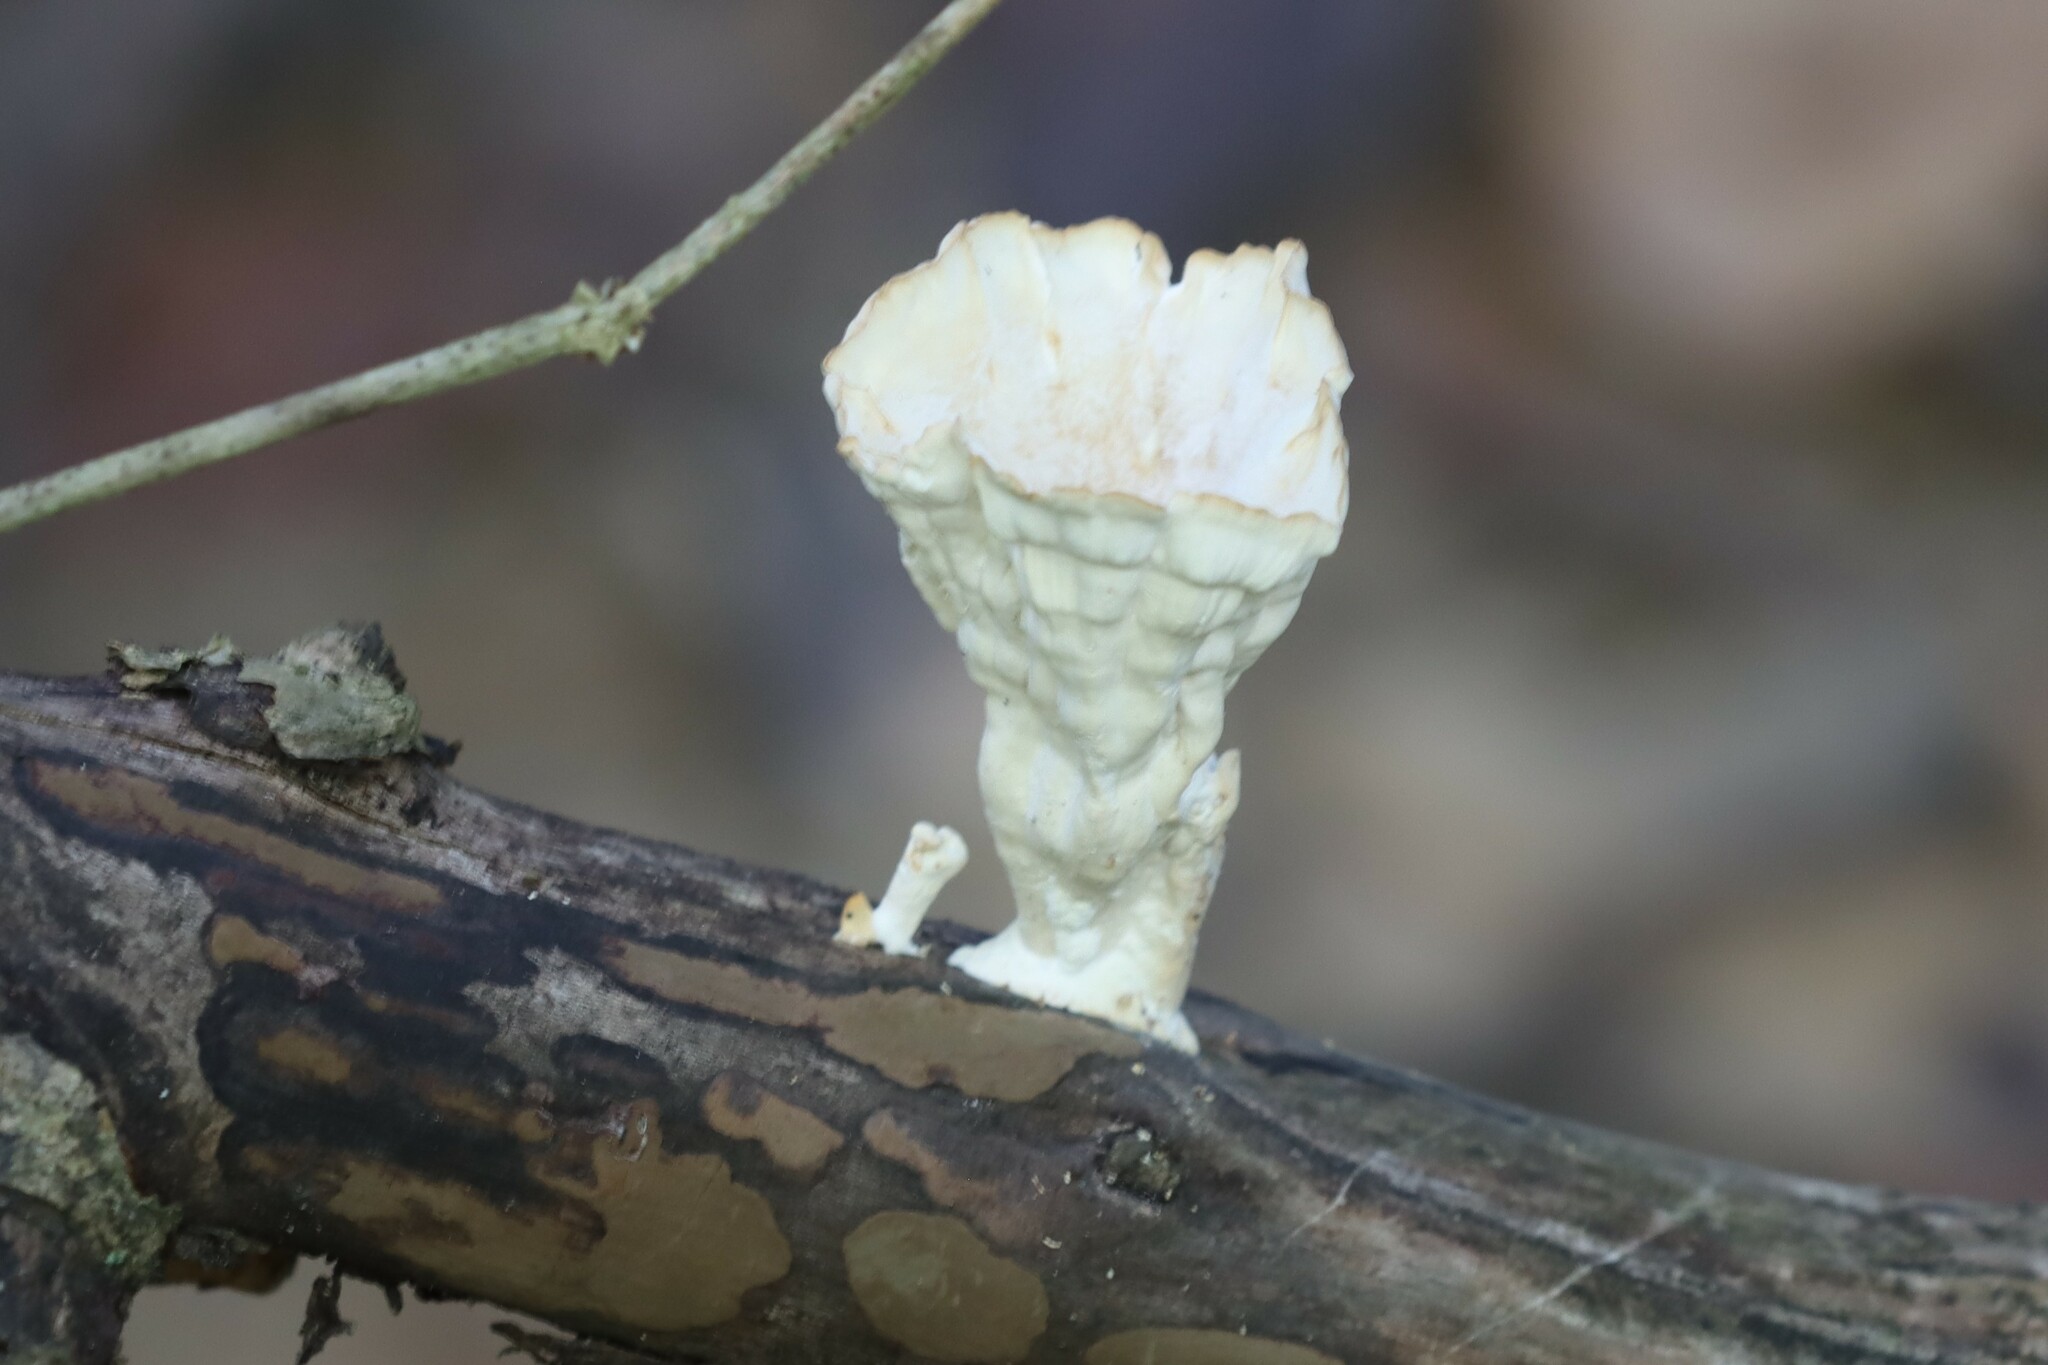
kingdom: Fungi
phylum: Basidiomycota
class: Agaricomycetes
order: Polyporales
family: Panaceae
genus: Cymatoderma
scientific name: Cymatoderma caperatum
